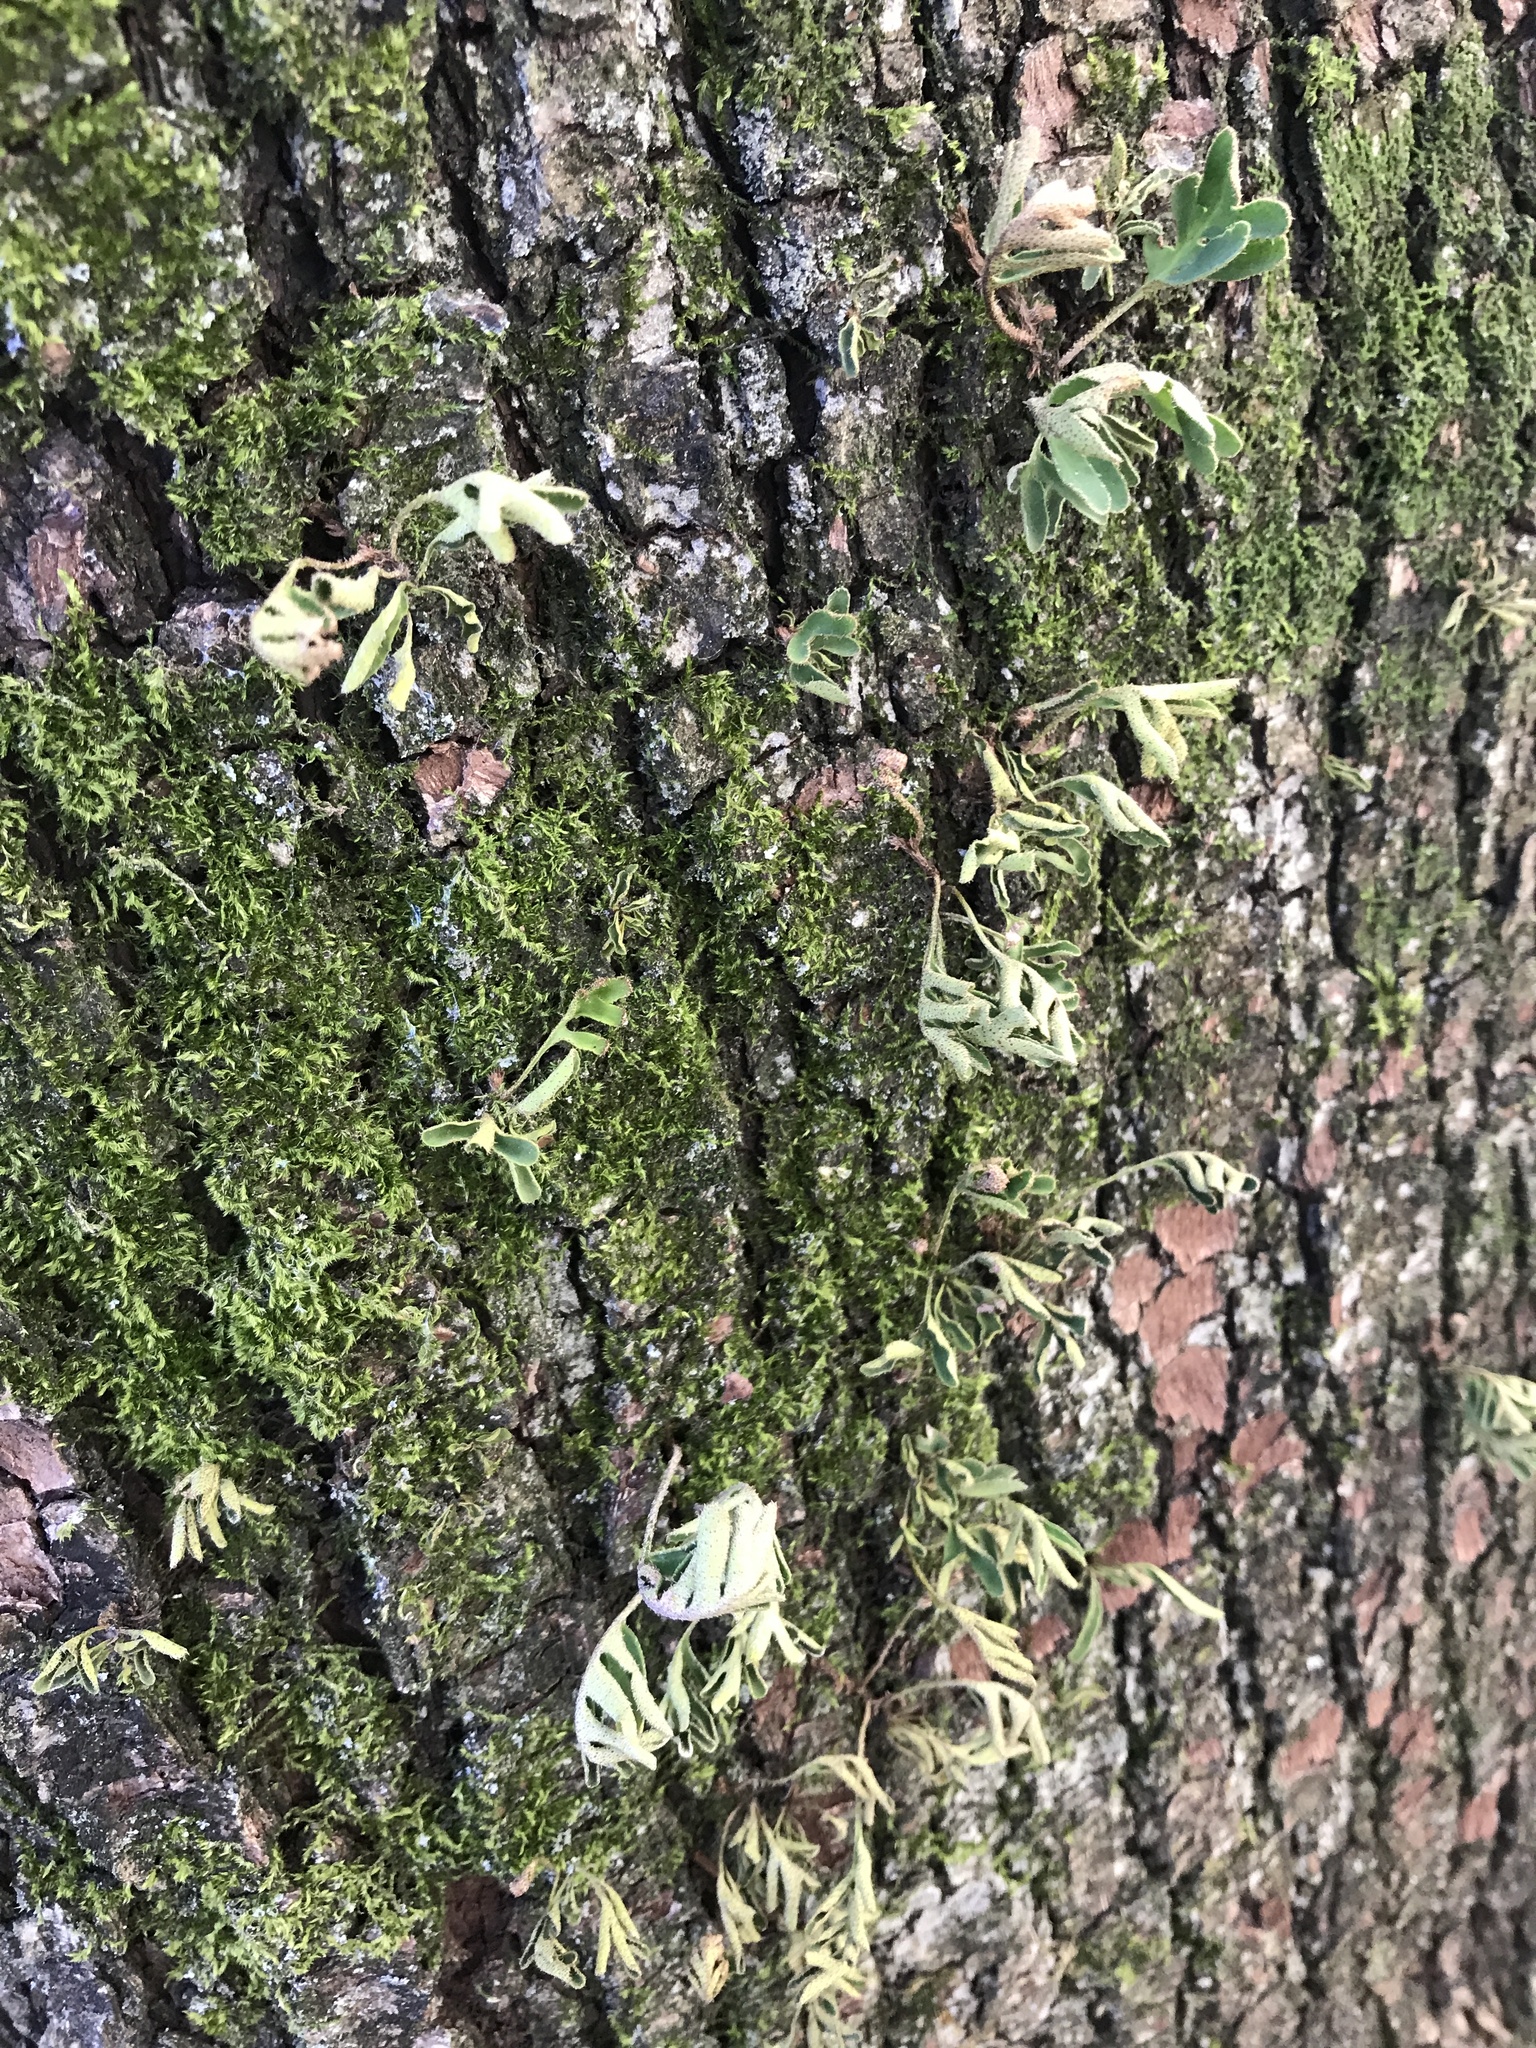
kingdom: Plantae
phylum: Tracheophyta
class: Polypodiopsida
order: Polypodiales
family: Polypodiaceae
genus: Pleopeltis
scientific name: Pleopeltis michauxiana
